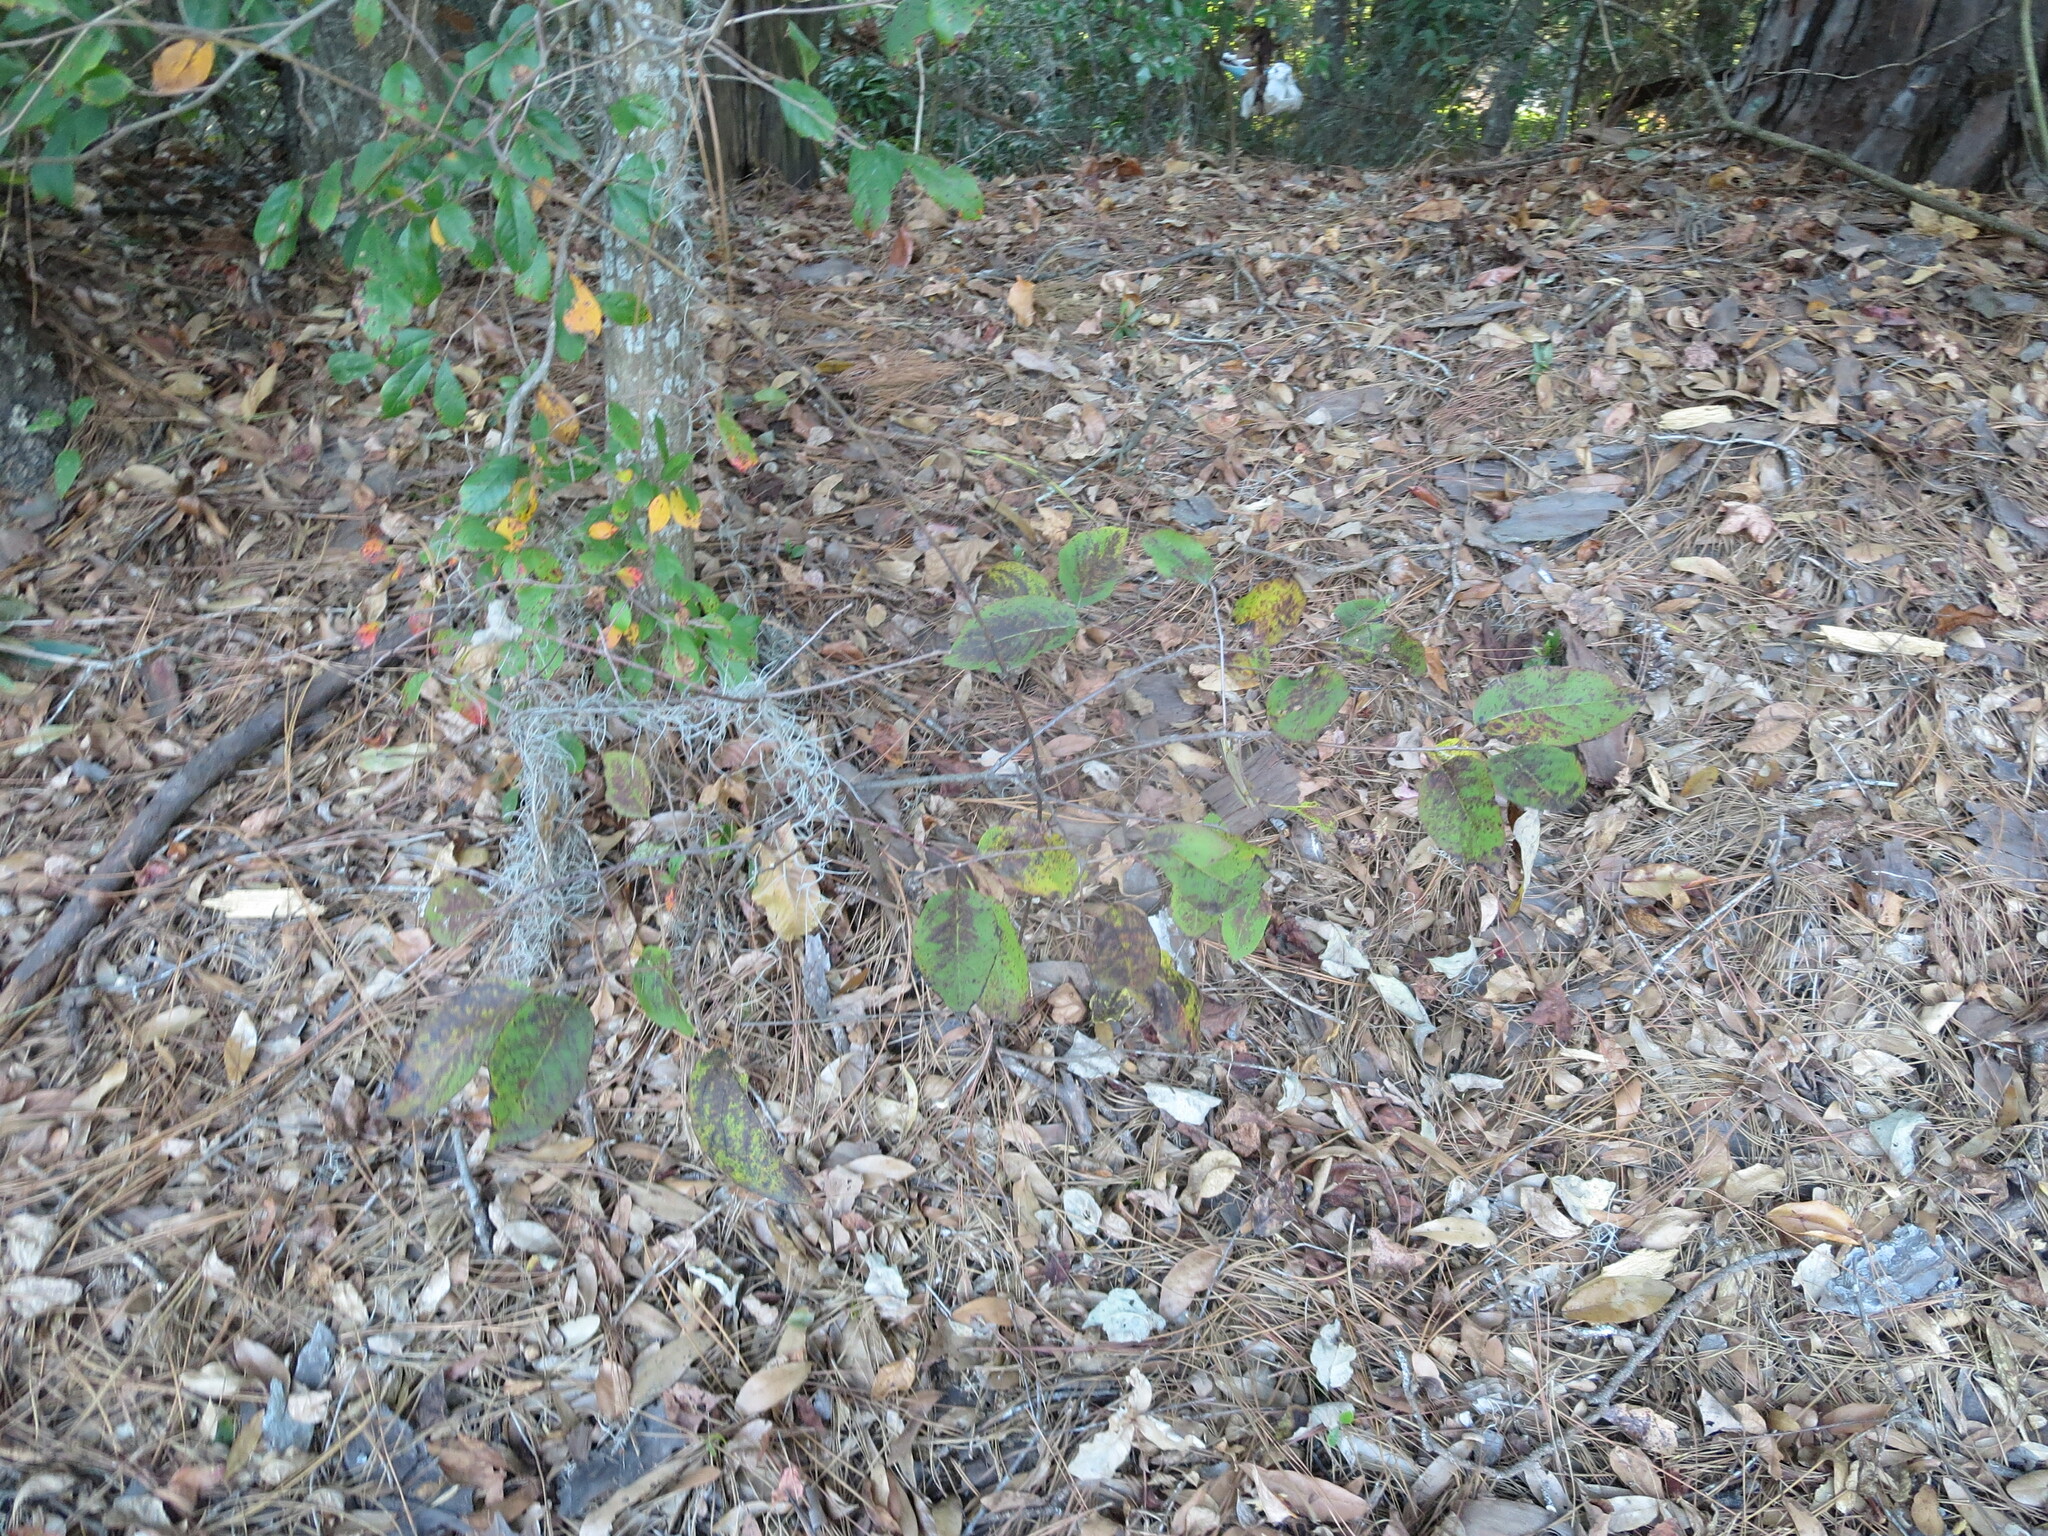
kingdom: Plantae
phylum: Tracheophyta
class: Magnoliopsida
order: Ericales
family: Ebenaceae
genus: Diospyros
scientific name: Diospyros virginiana
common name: Persimmon
